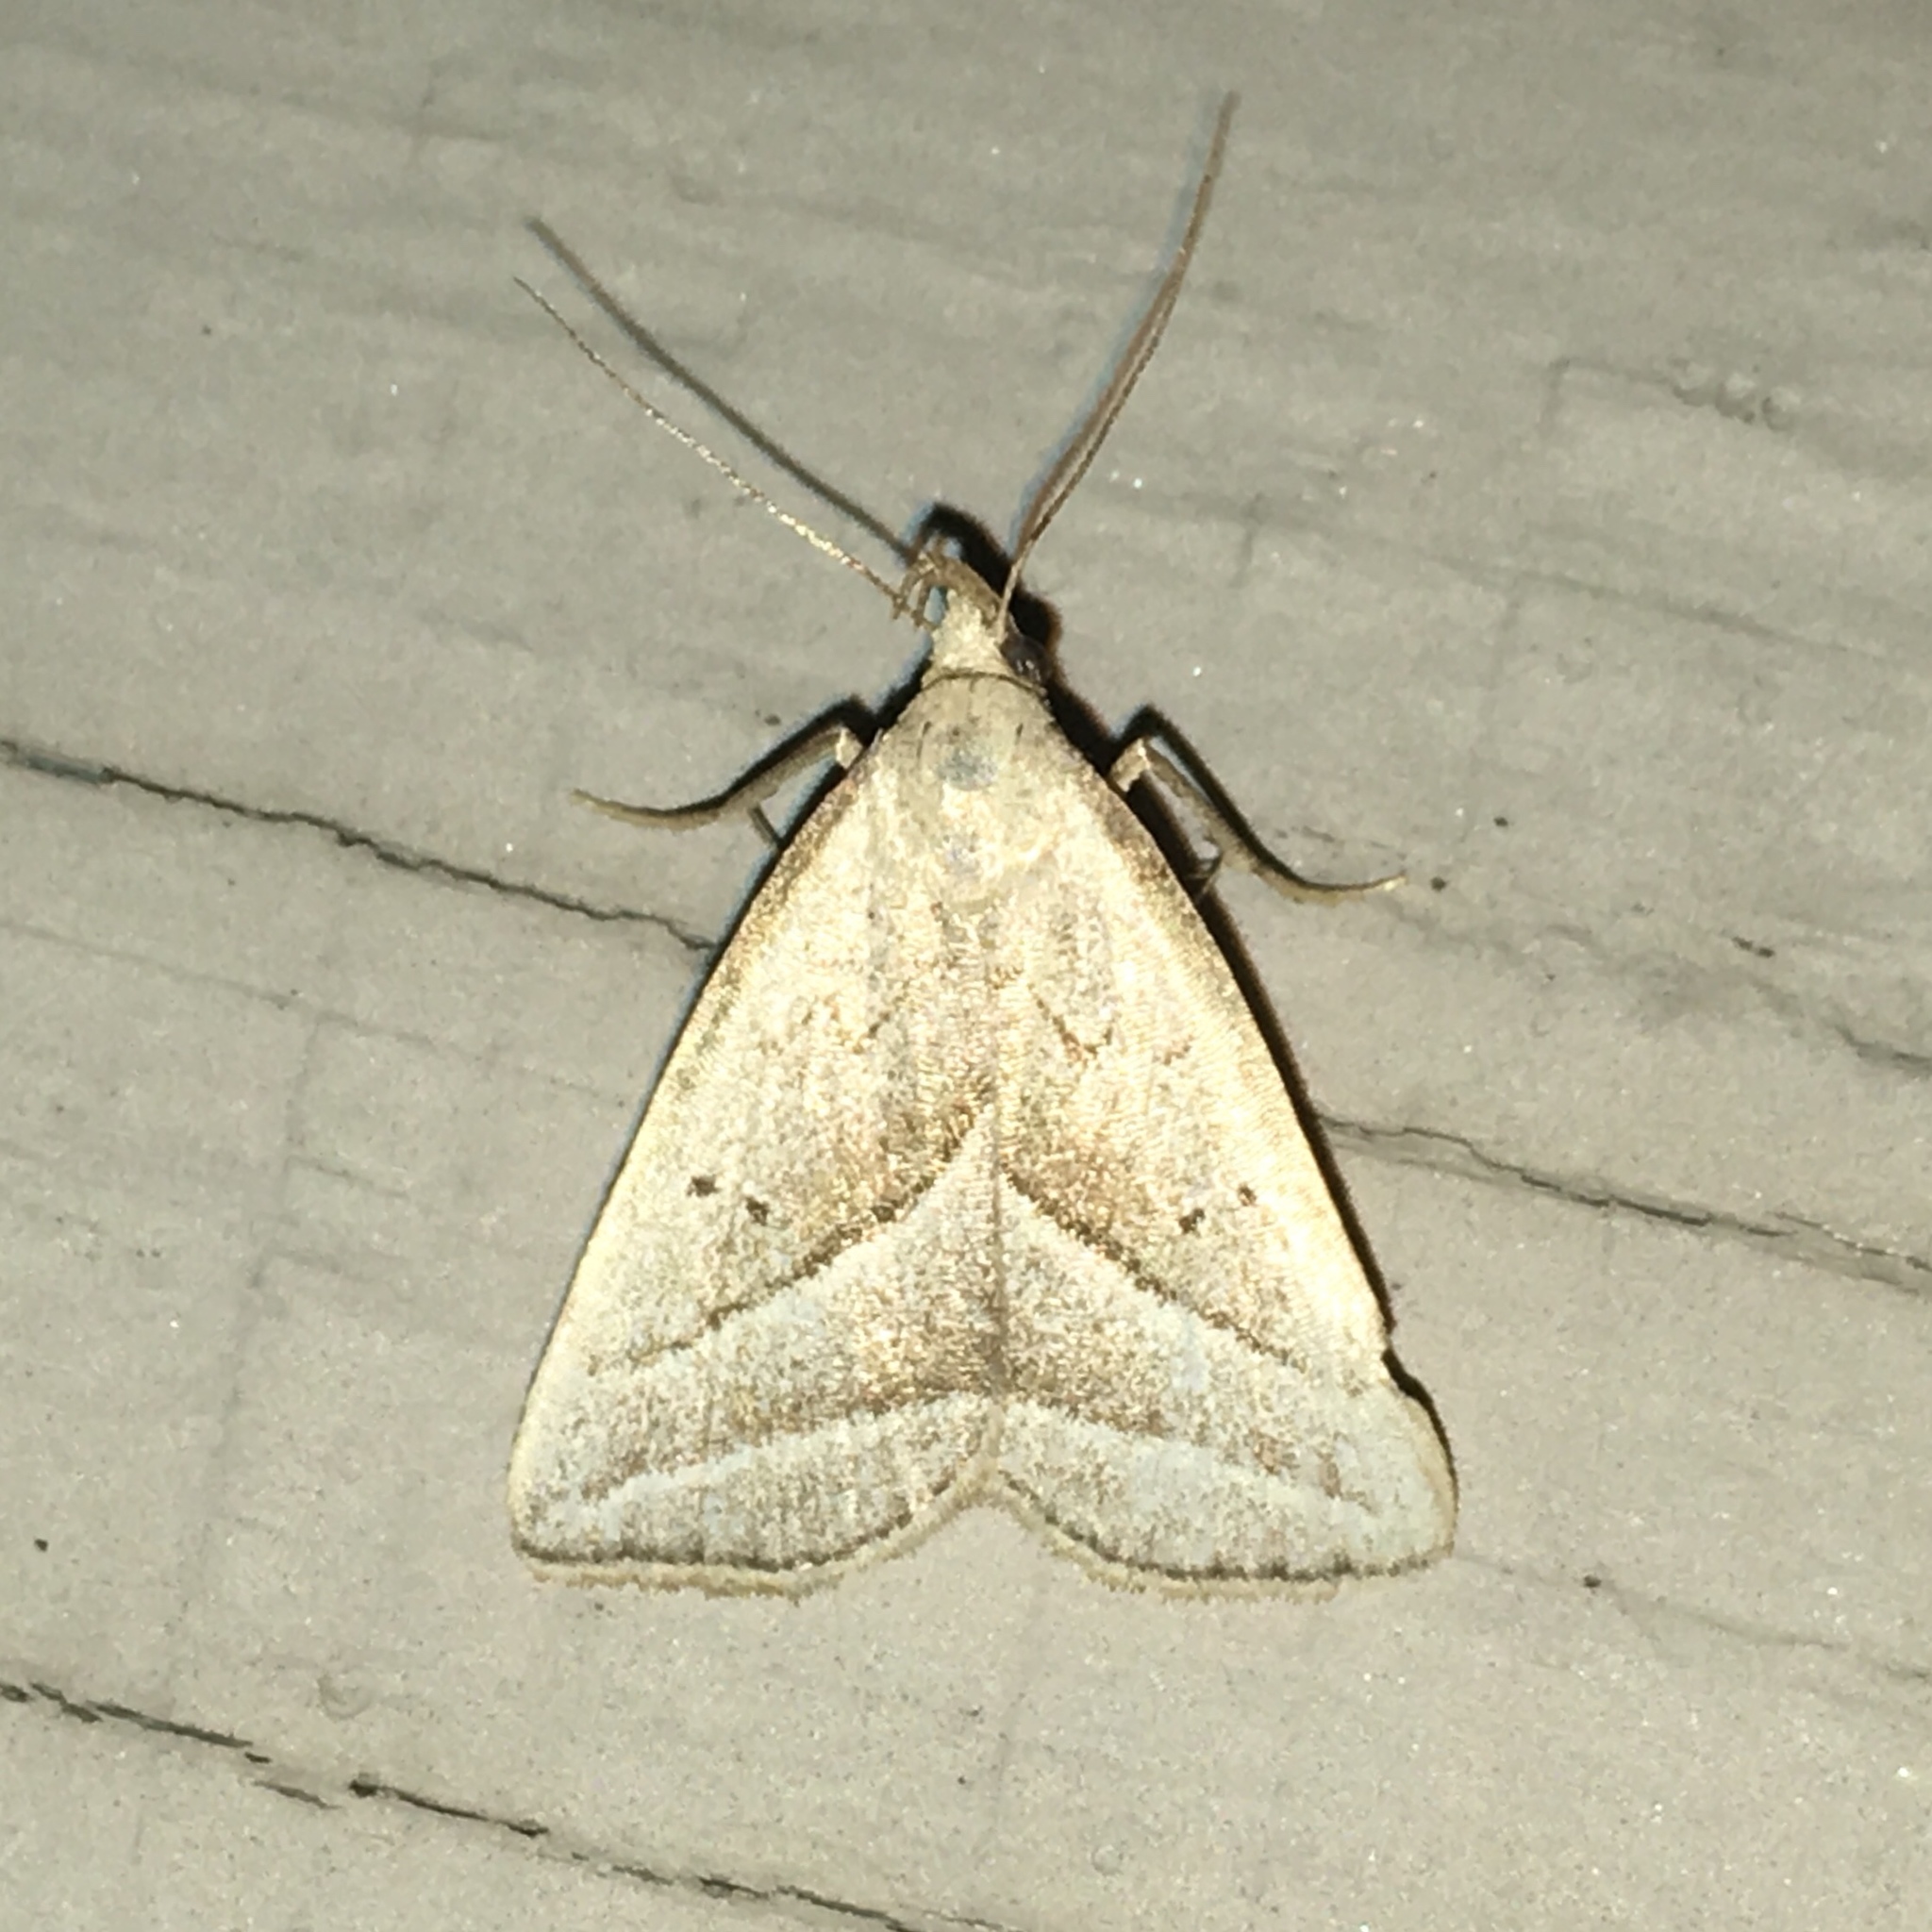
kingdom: Animalia
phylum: Arthropoda
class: Insecta
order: Lepidoptera
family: Erebidae
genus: Macrochilo
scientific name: Macrochilo absorptalis
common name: Slant-lined owlet
